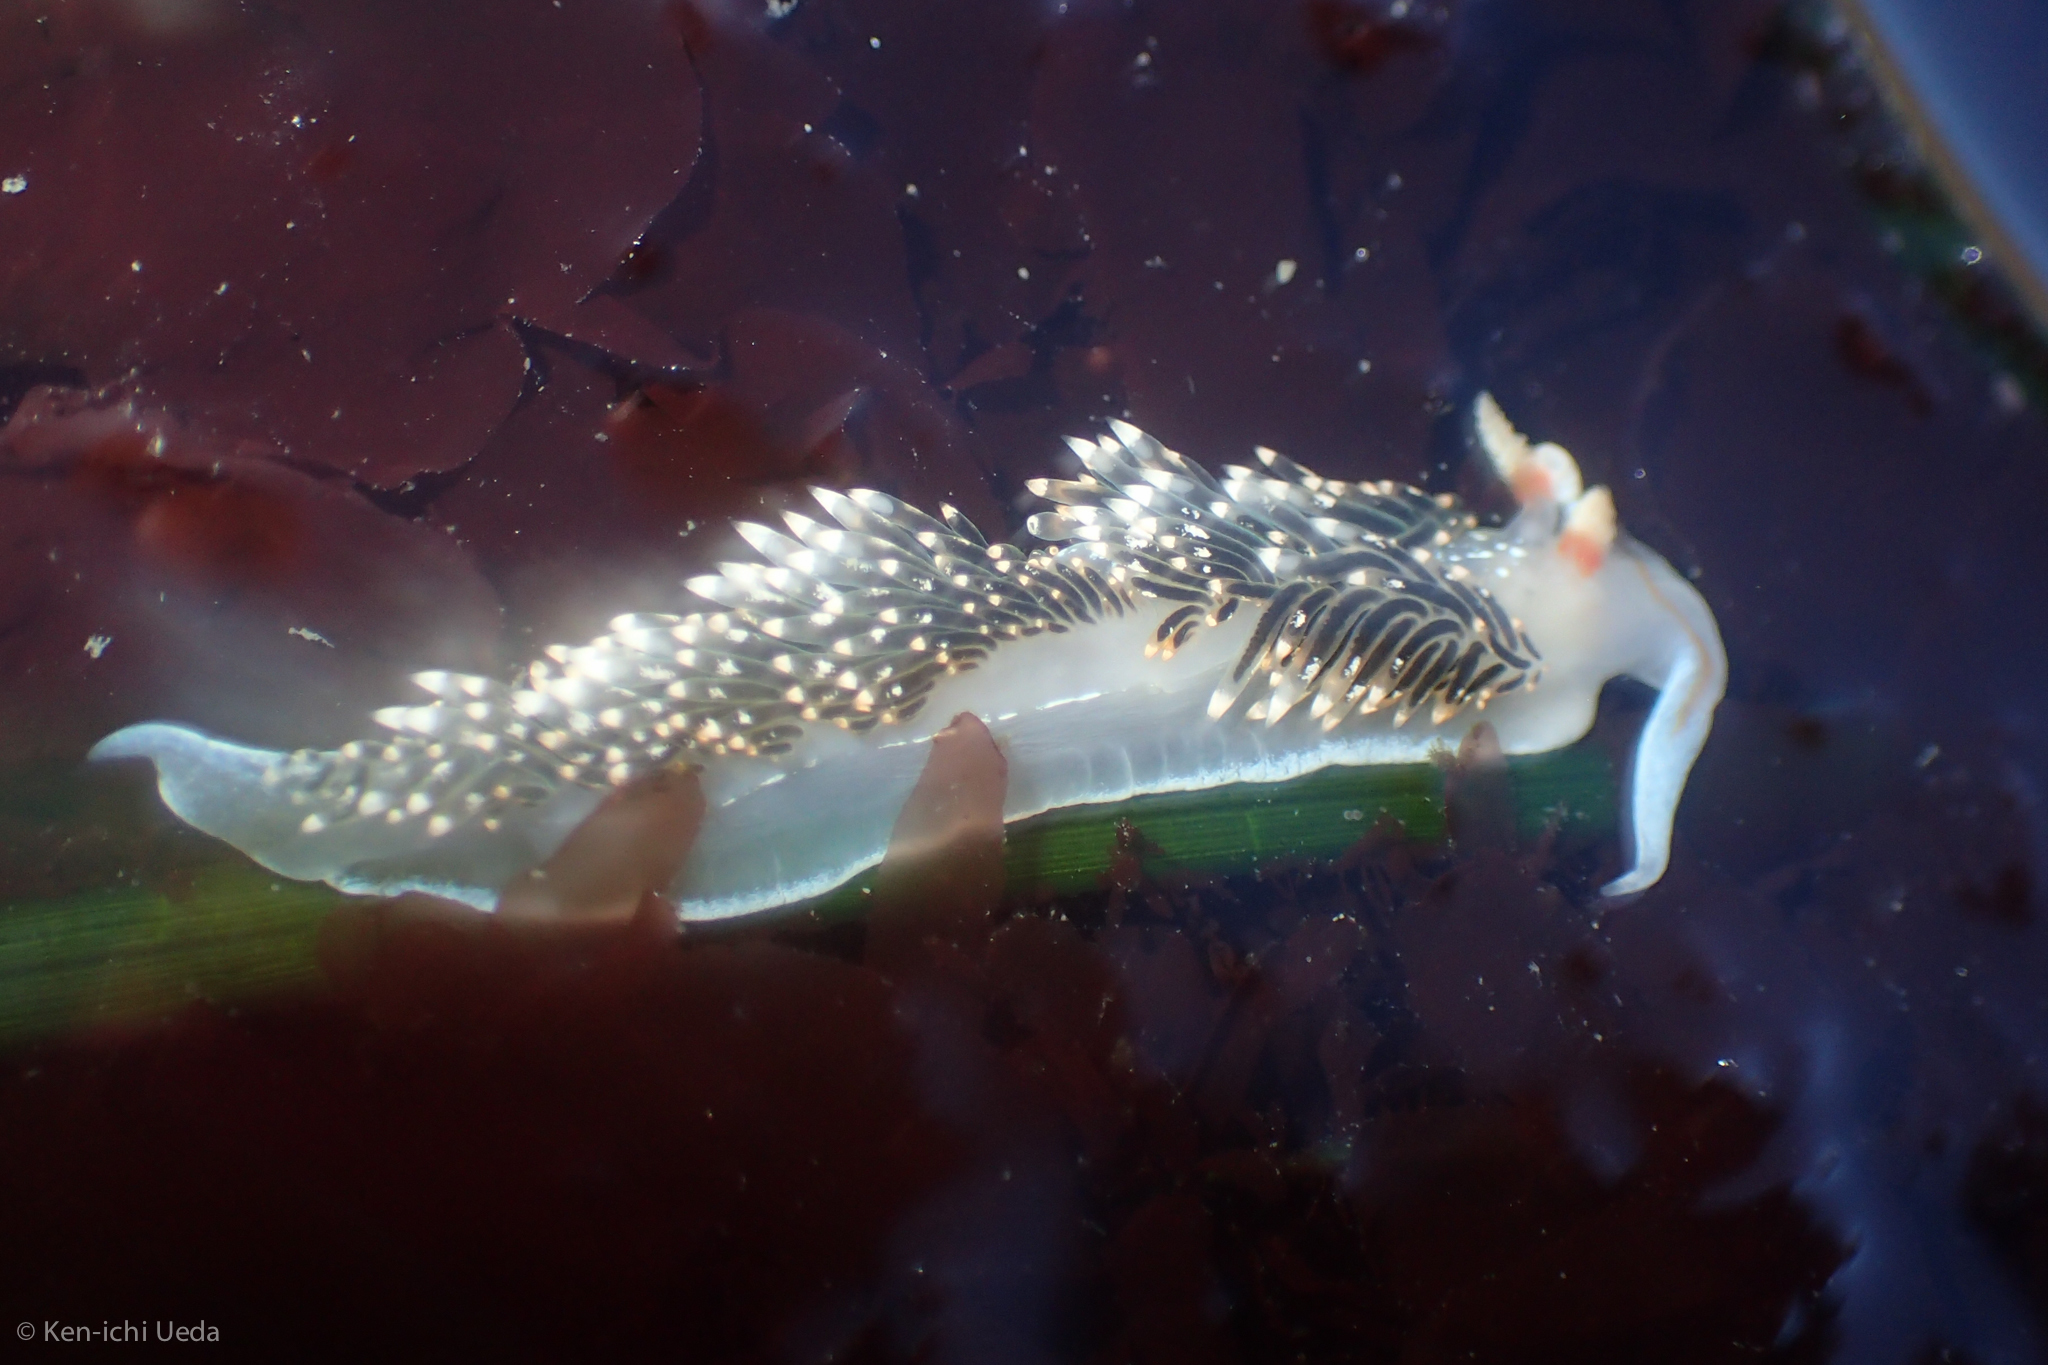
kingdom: Animalia
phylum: Mollusca
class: Gastropoda
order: Nudibranchia
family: Facelinidae
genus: Phidiana
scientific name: Phidiana hiltoni
